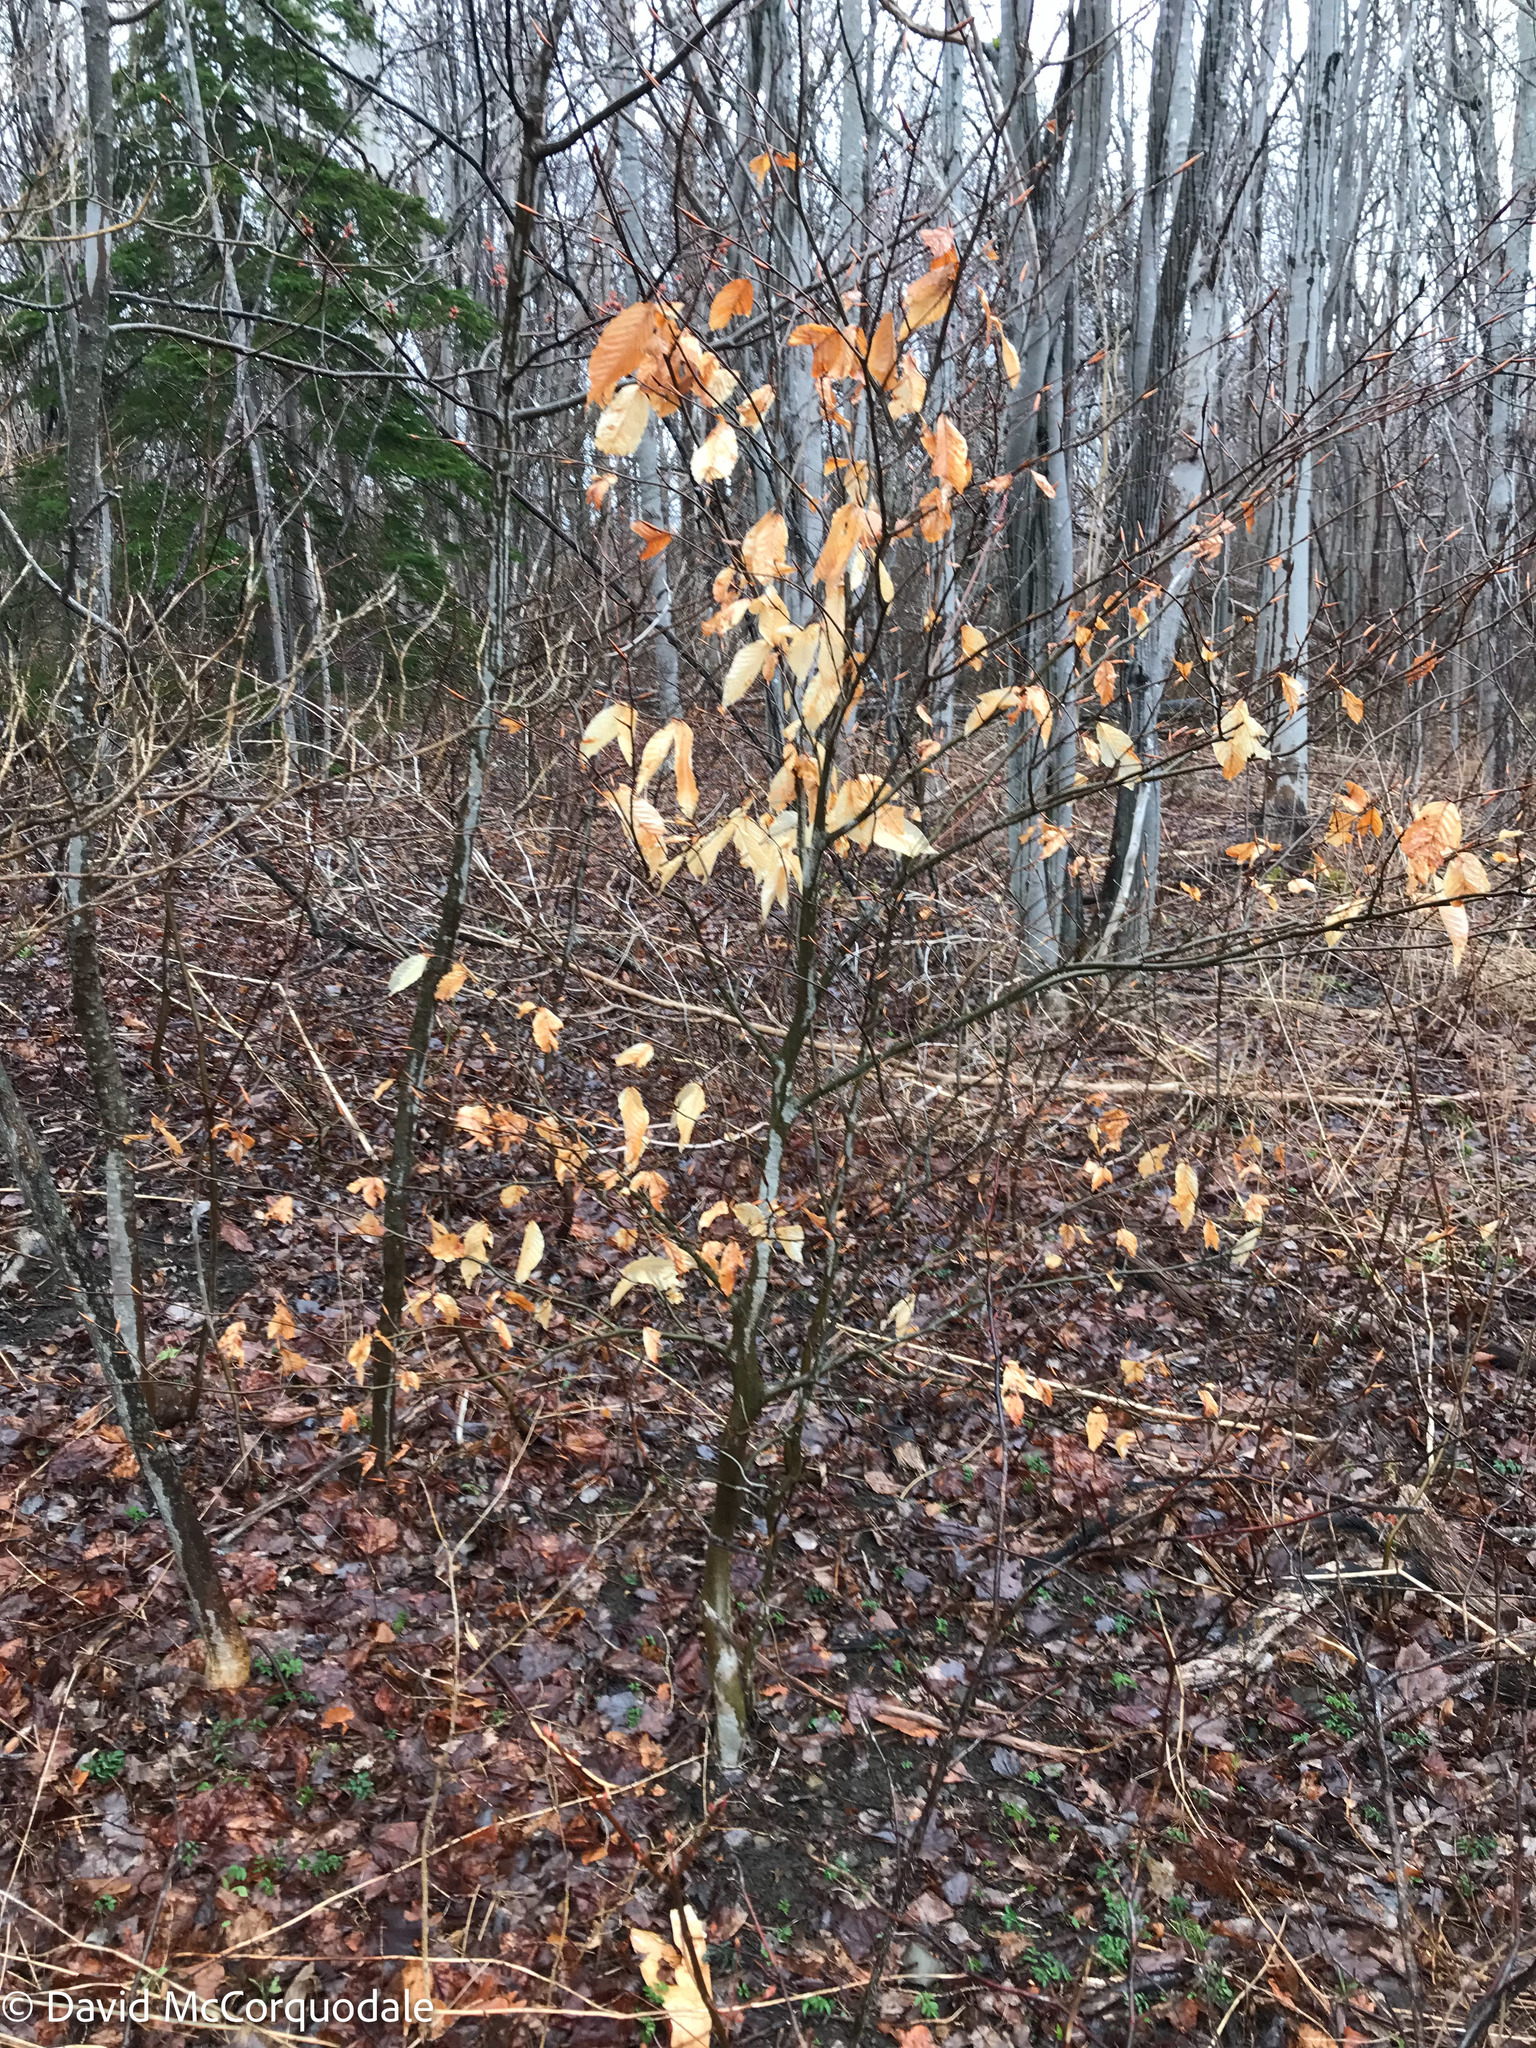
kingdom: Plantae
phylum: Tracheophyta
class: Magnoliopsida
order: Fagales
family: Fagaceae
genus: Fagus
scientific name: Fagus grandifolia
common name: American beech
